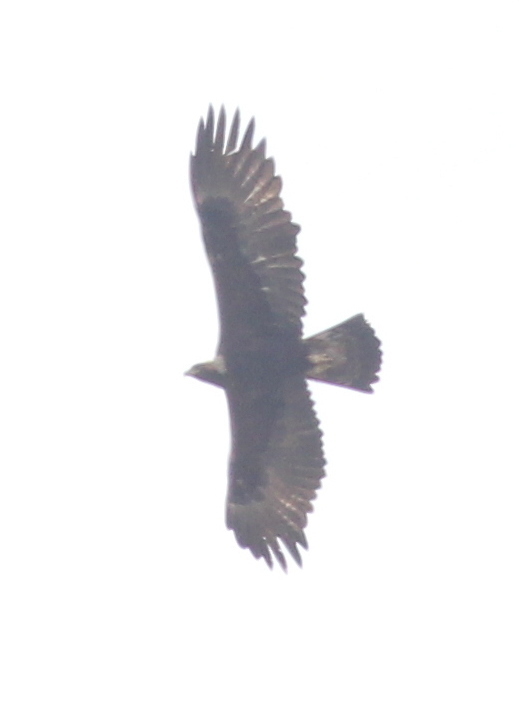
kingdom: Animalia
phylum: Chordata
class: Aves
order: Accipitriformes
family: Accipitridae
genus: Aquila
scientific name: Aquila chrysaetos
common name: Golden eagle
